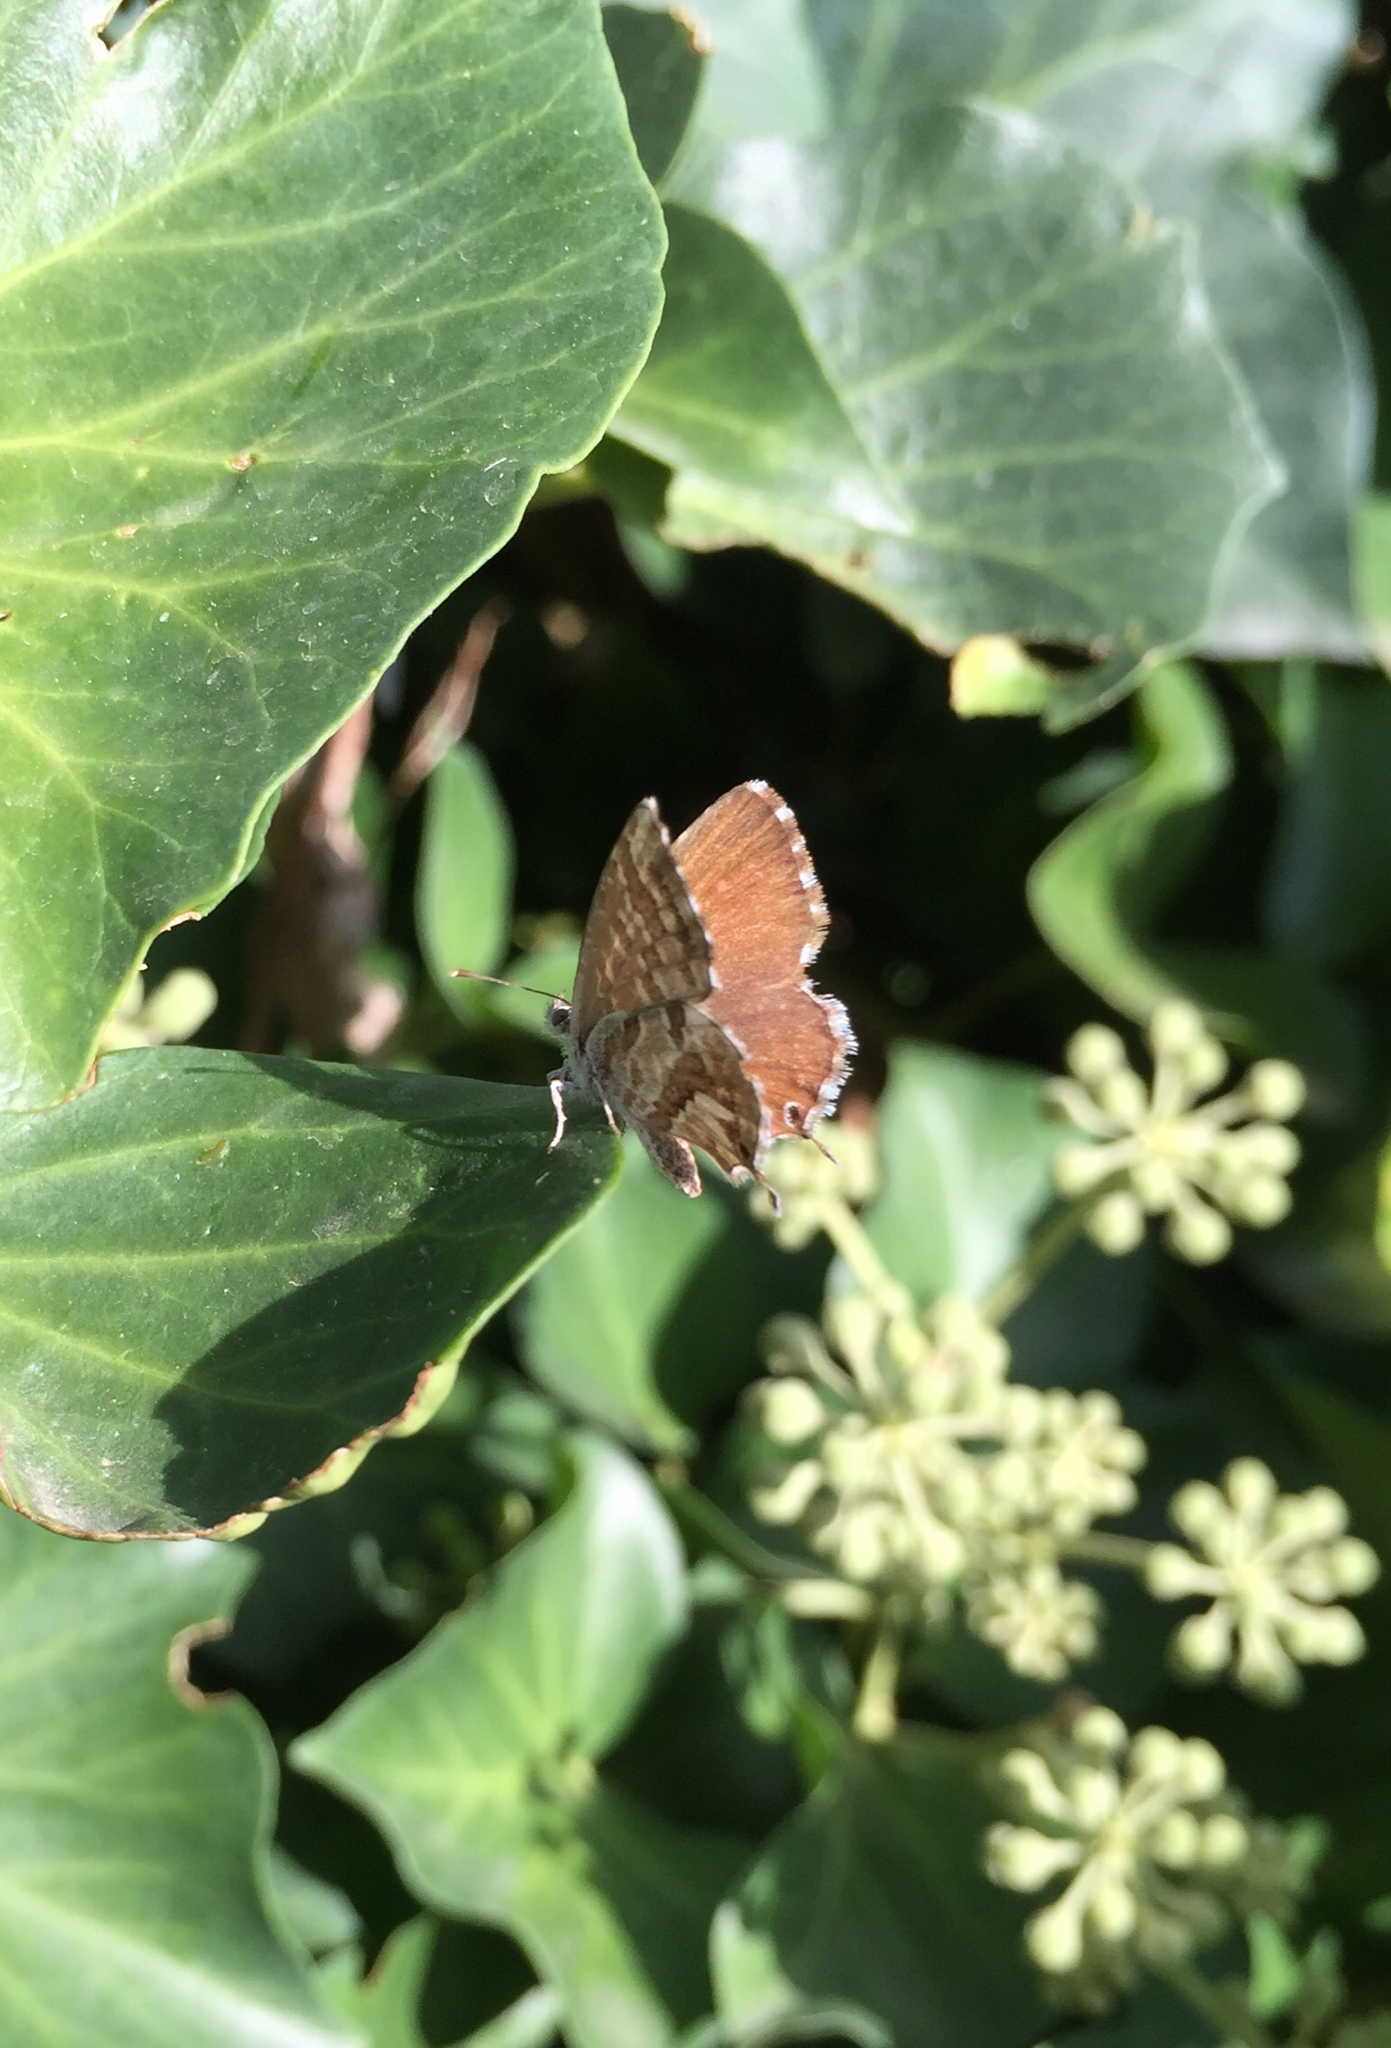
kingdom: Animalia
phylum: Arthropoda
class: Insecta
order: Lepidoptera
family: Lycaenidae
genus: Cacyreus
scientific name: Cacyreus marshalli
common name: Geranium bronze
